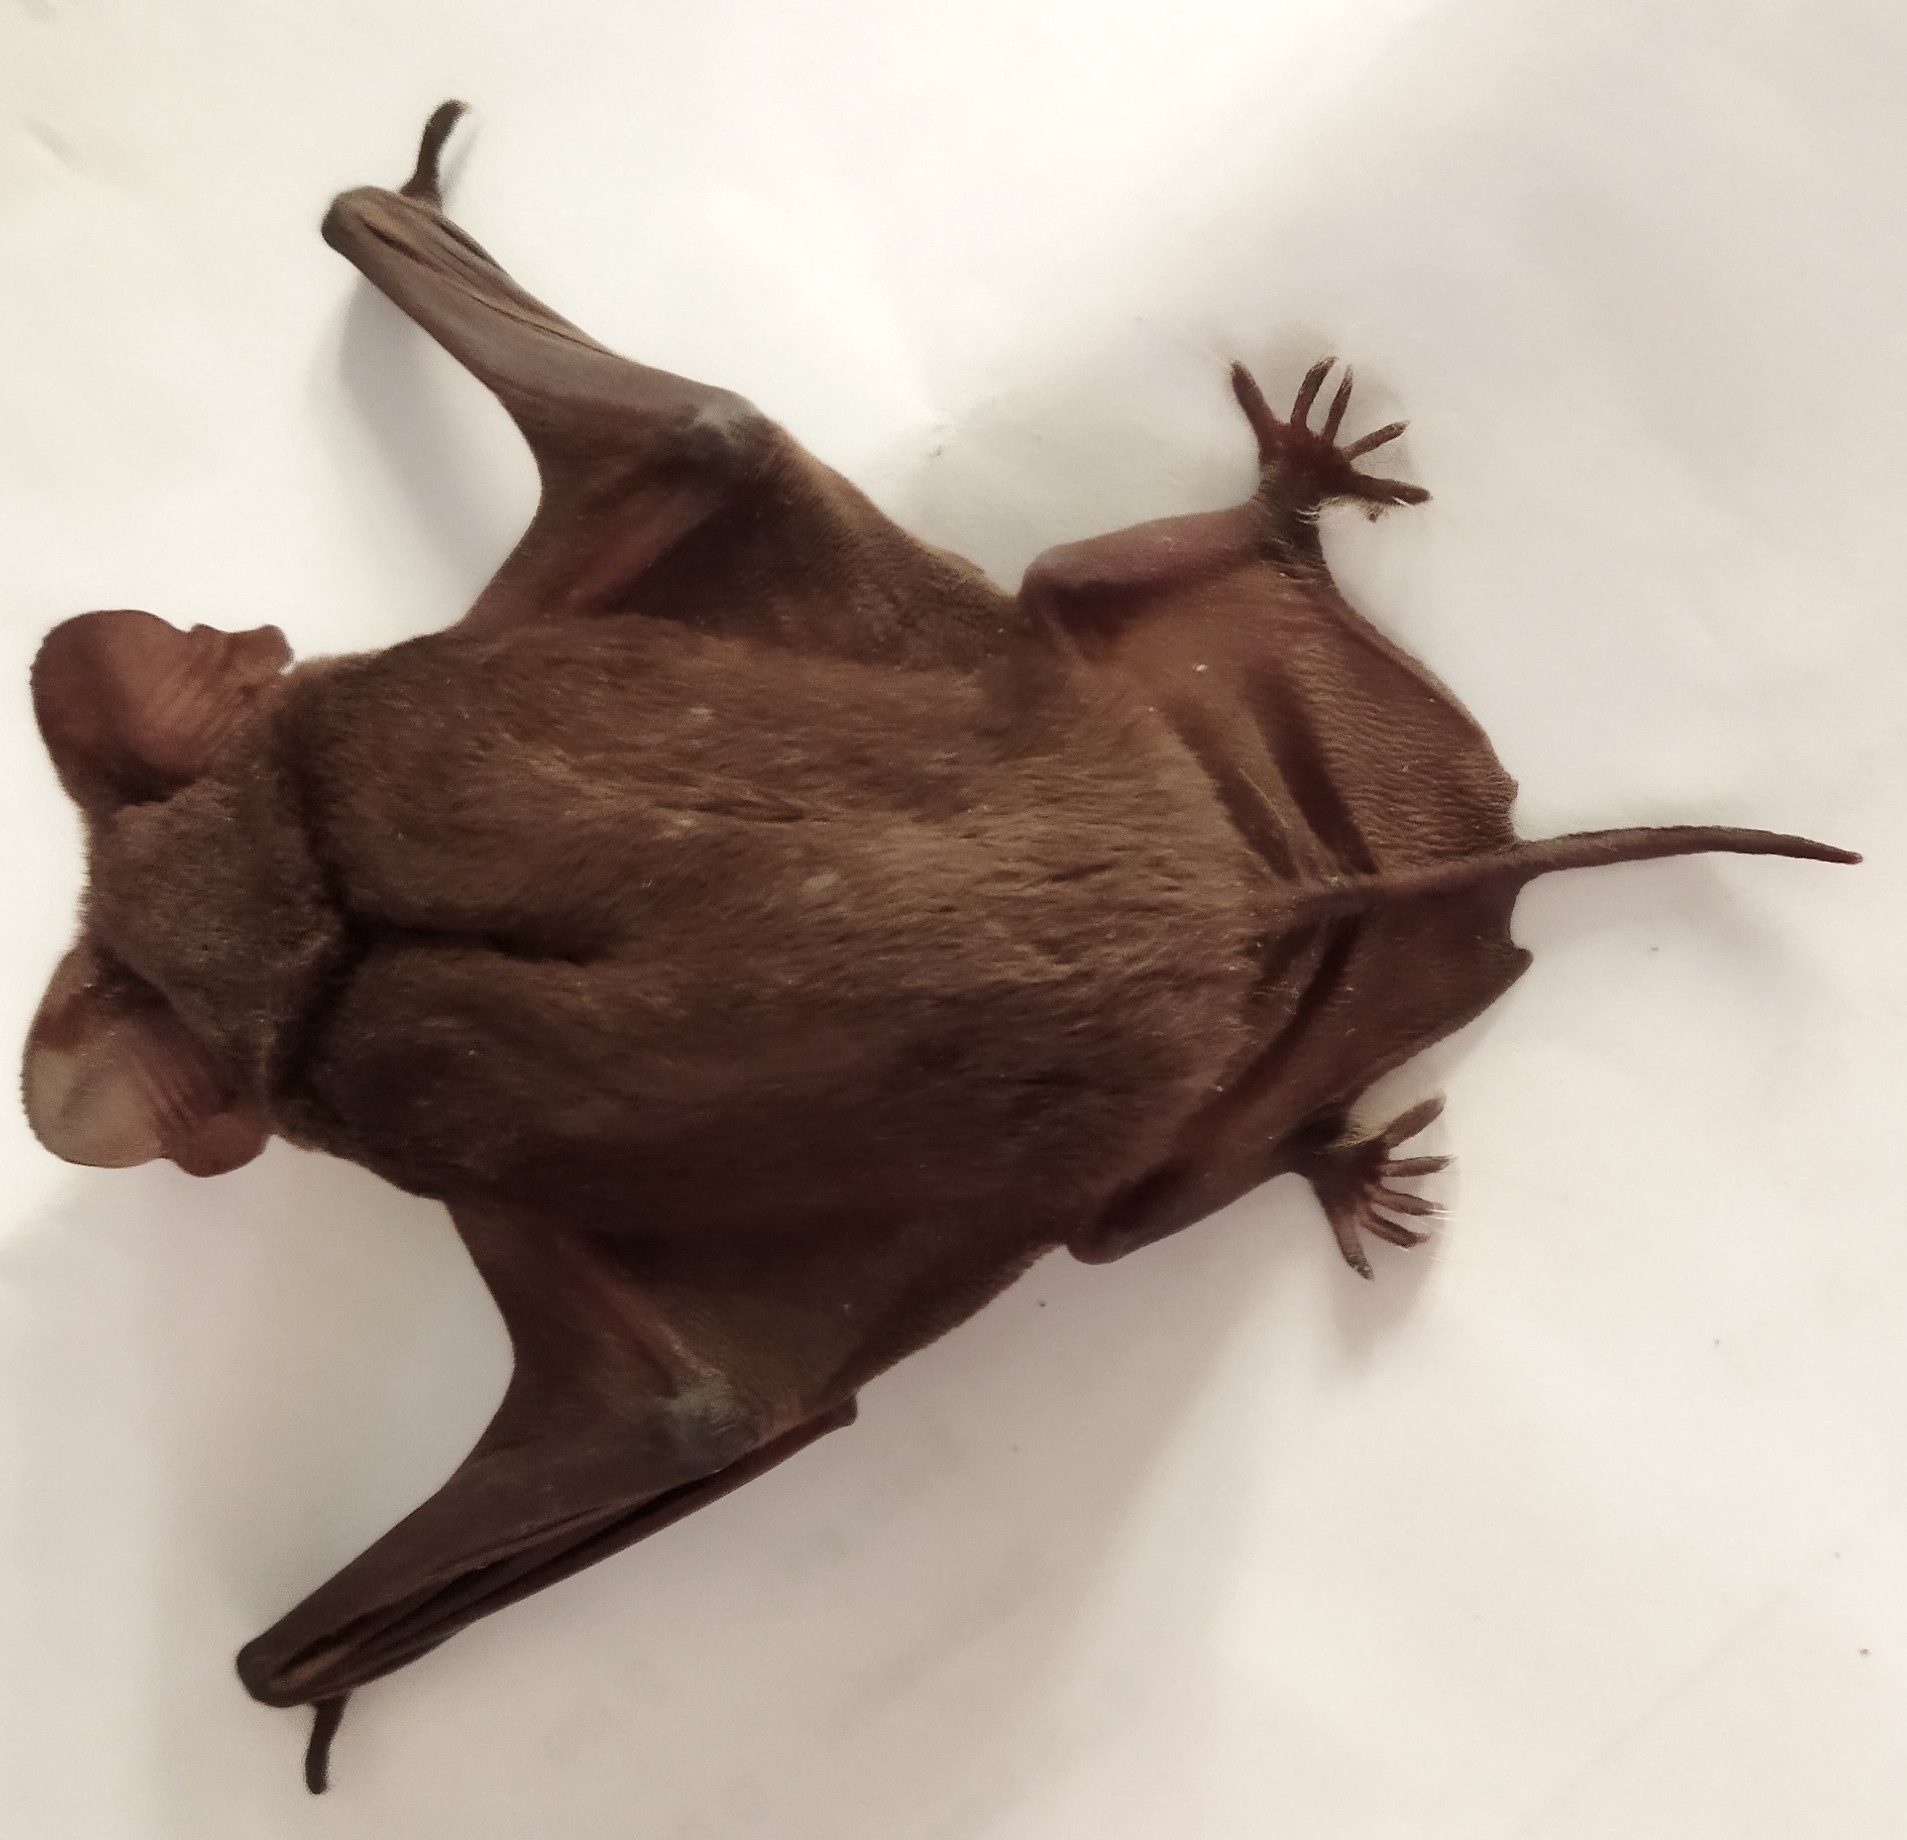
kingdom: Animalia
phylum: Chordata
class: Mammalia
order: Chiroptera
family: Molossidae
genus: Tadarida
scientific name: Tadarida brasiliensis
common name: Mexican free-tailed bat
